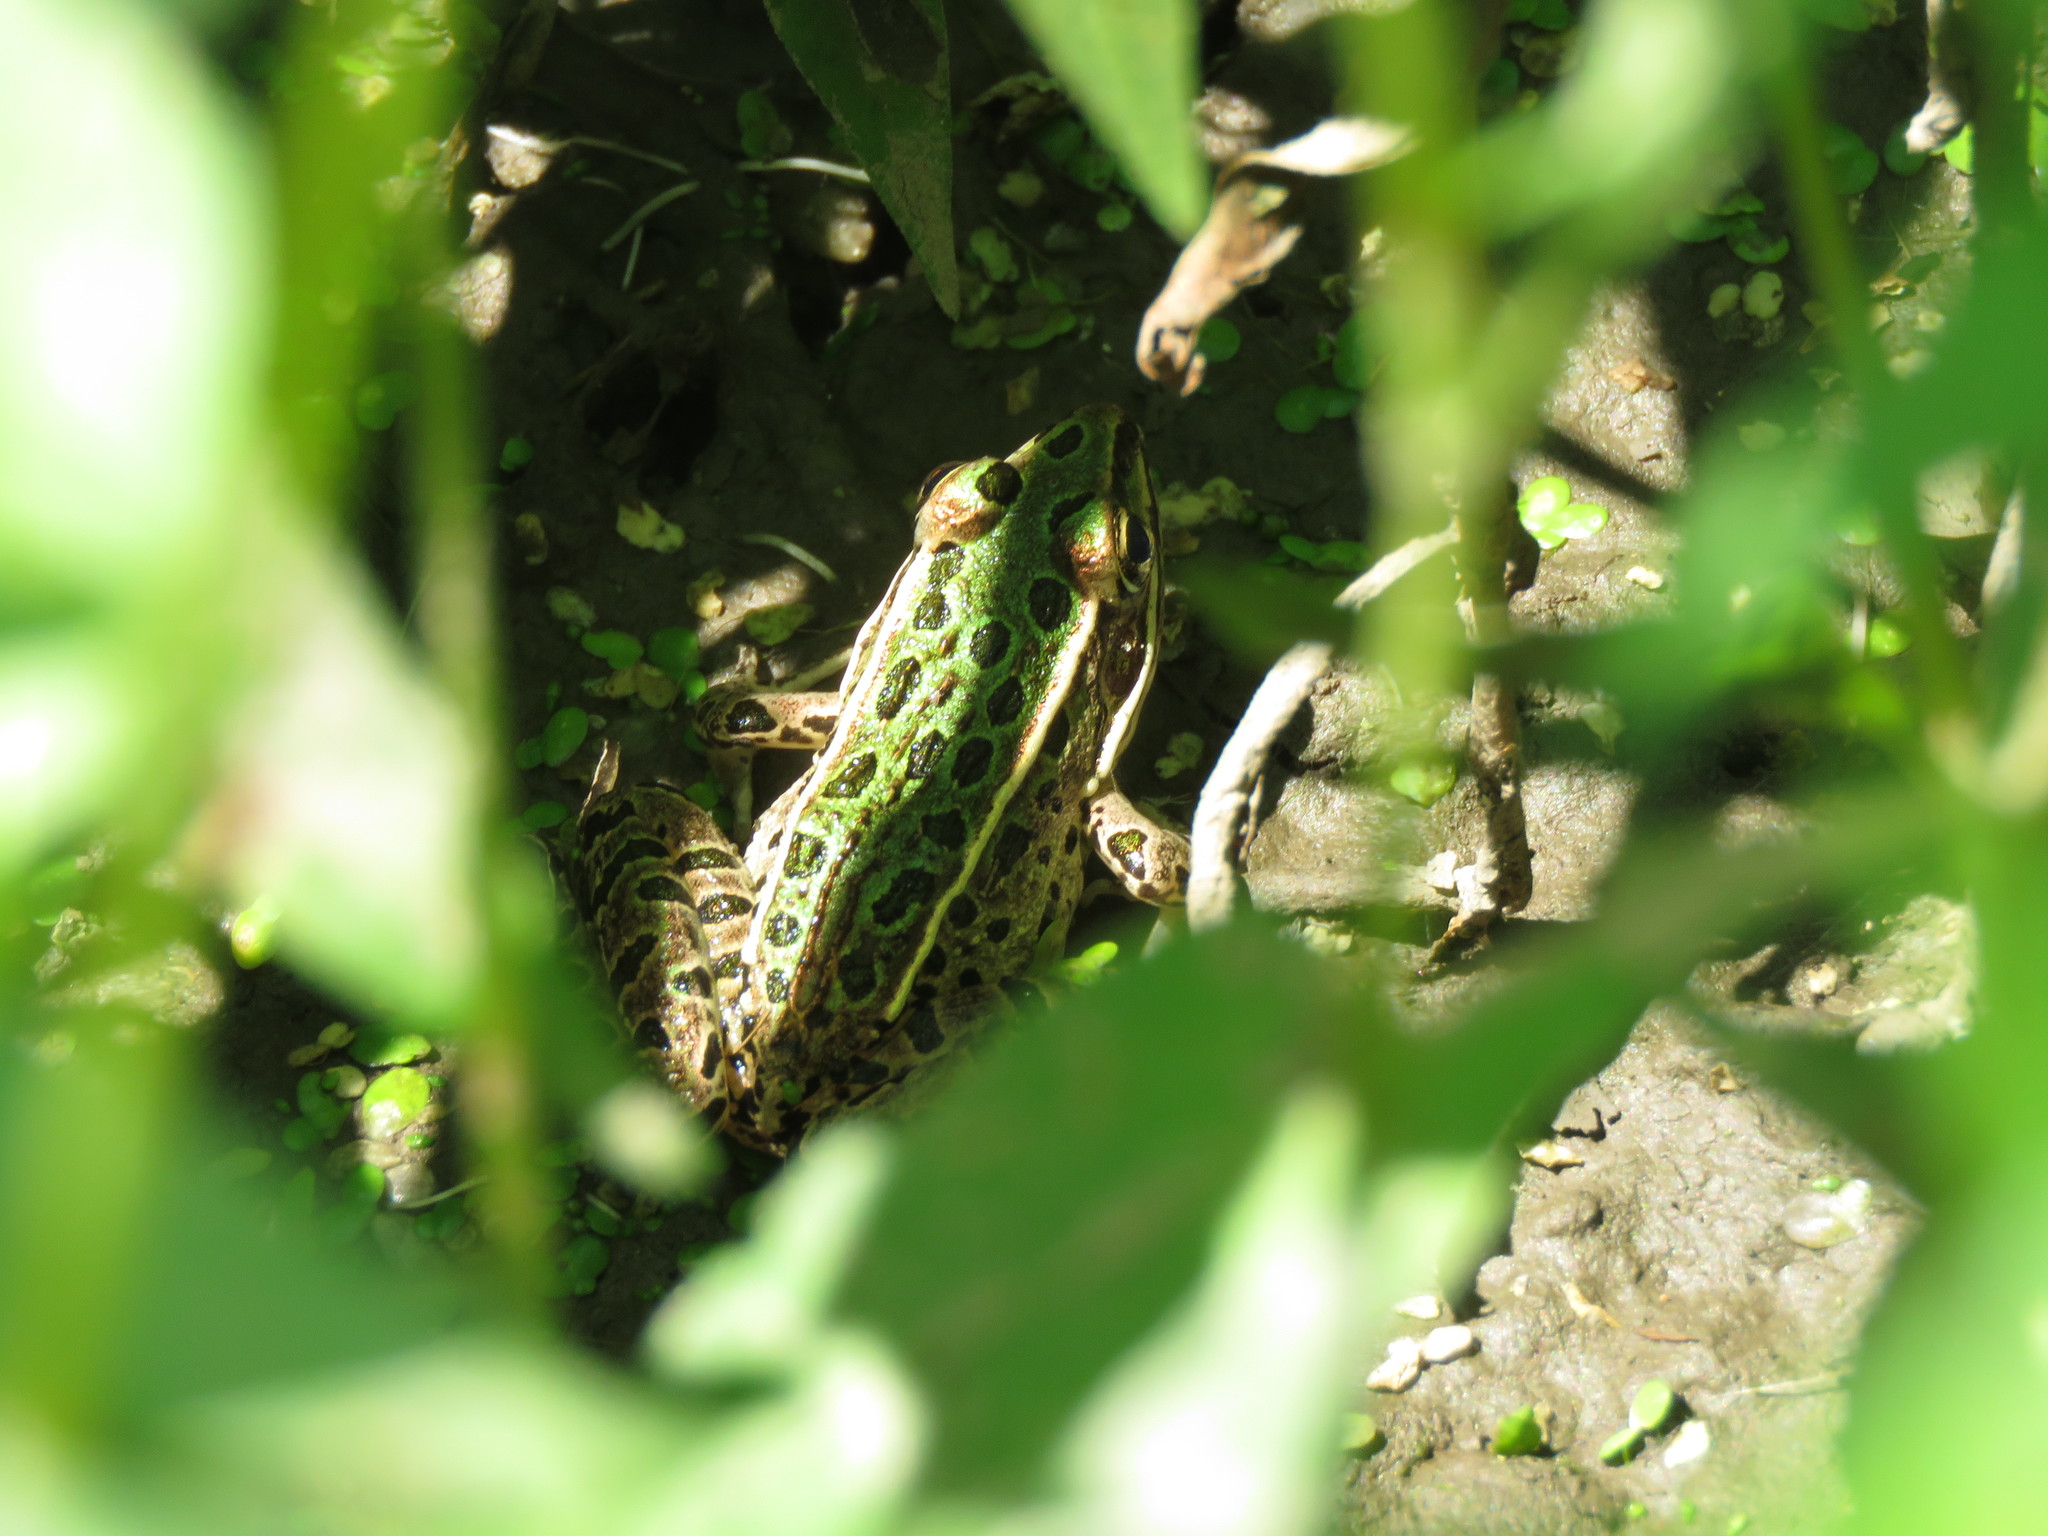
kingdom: Animalia
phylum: Chordata
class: Amphibia
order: Anura
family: Ranidae
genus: Lithobates
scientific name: Lithobates pipiens
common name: Northern leopard frog
